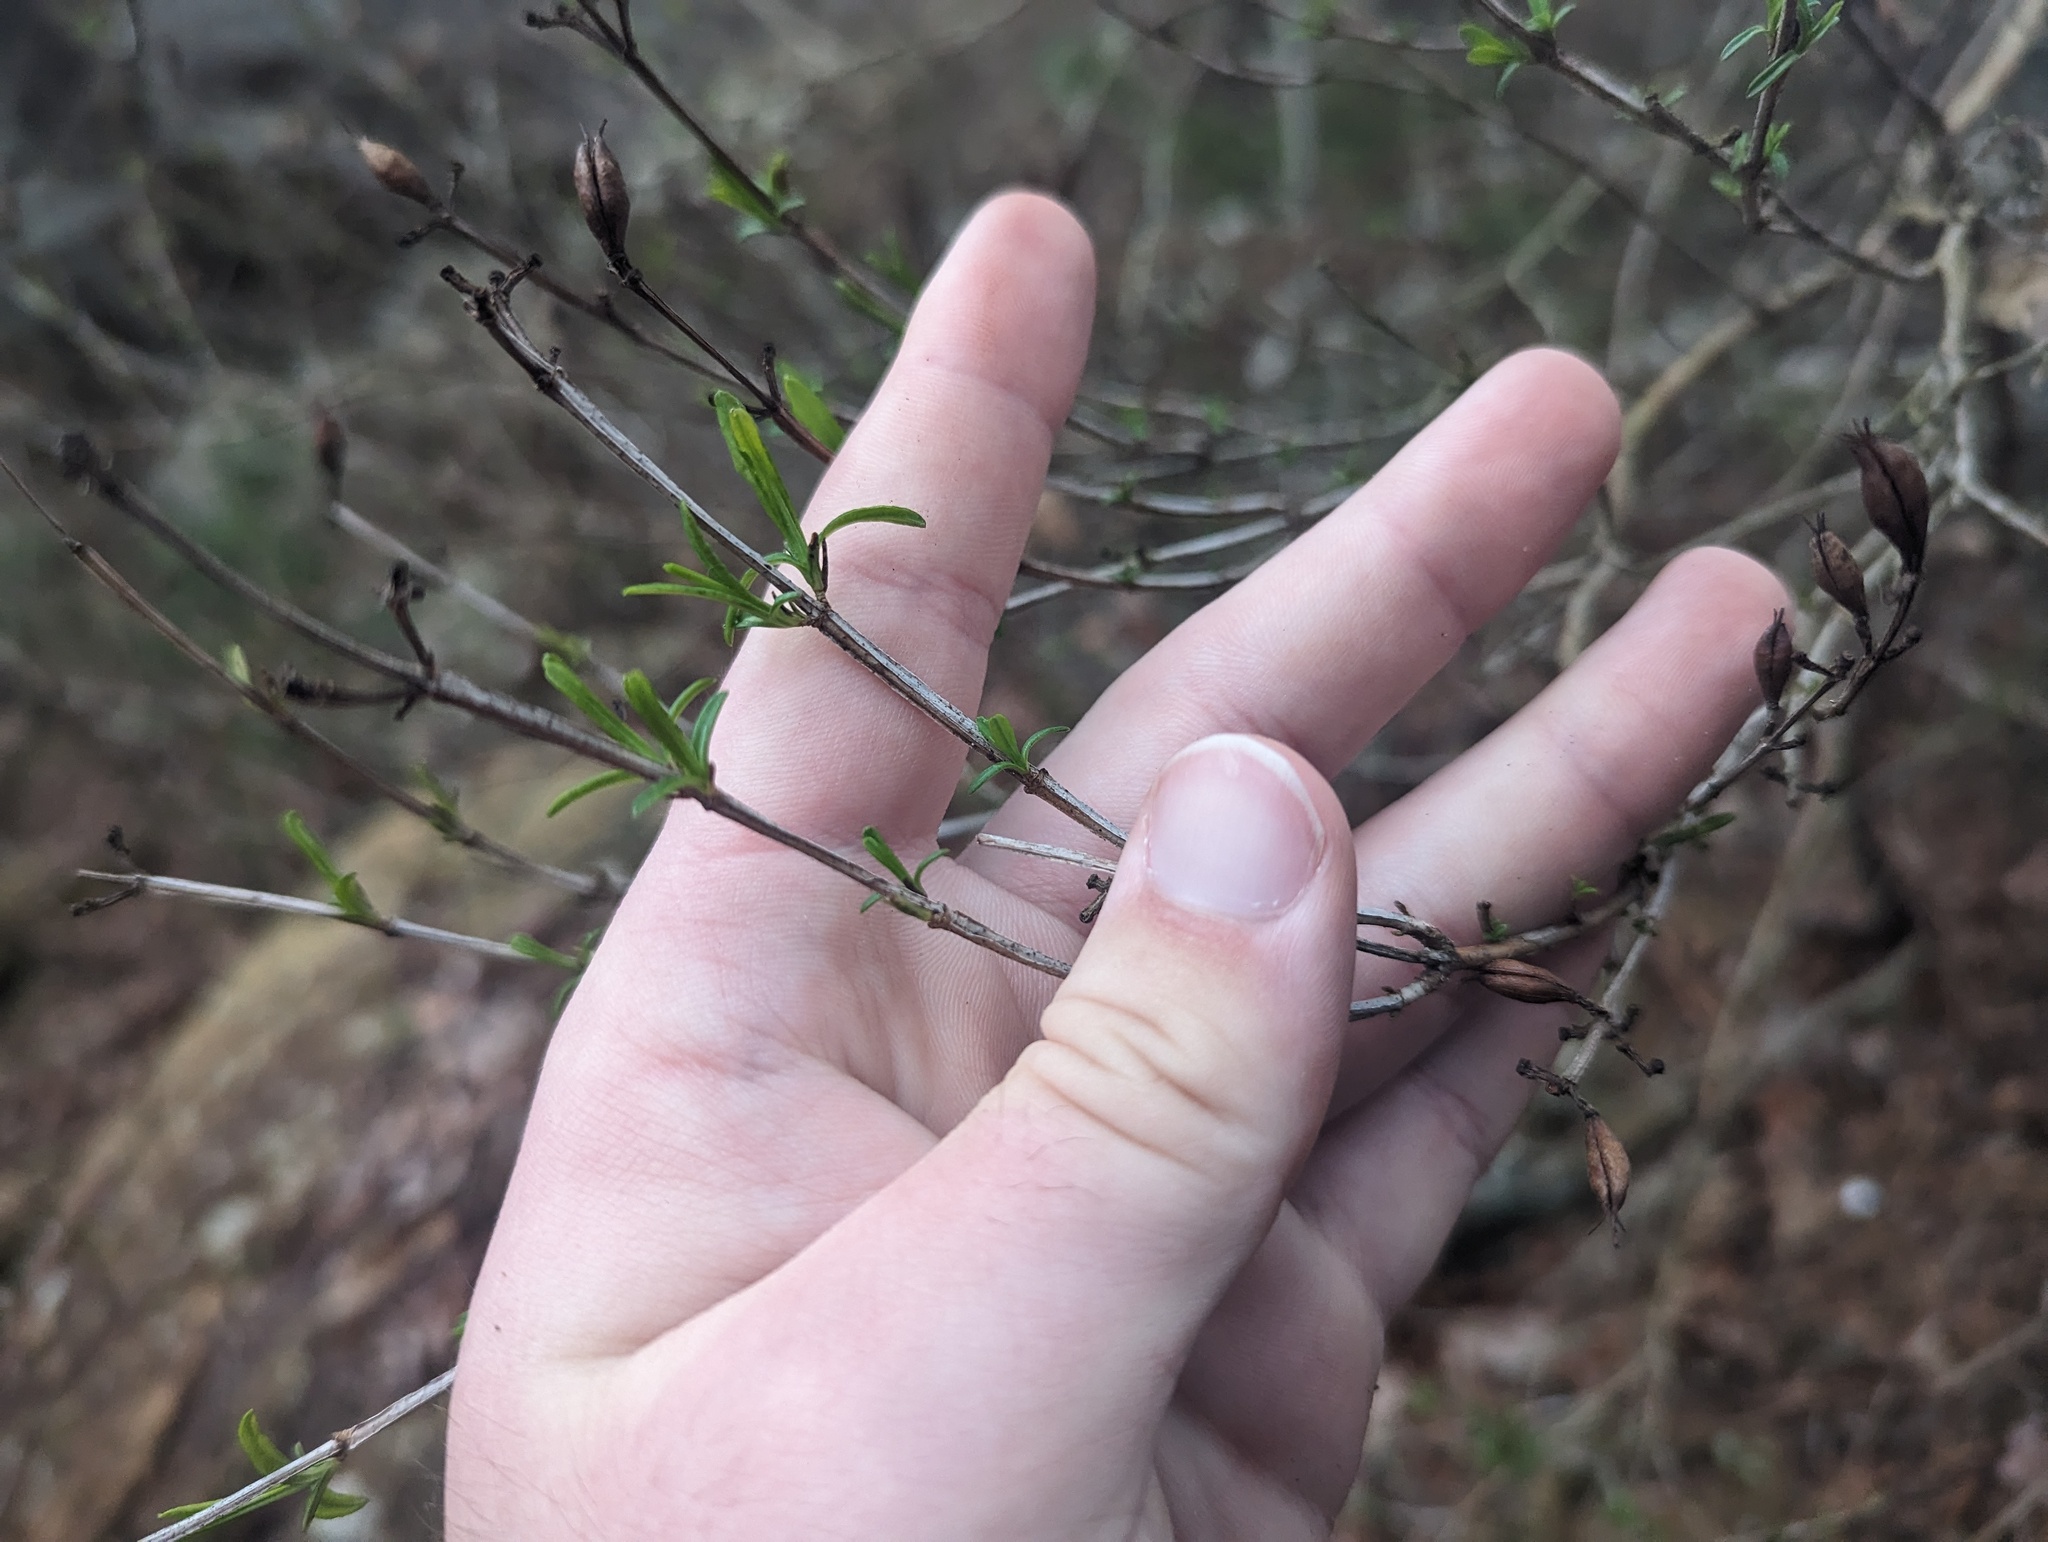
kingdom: Plantae
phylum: Tracheophyta
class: Magnoliopsida
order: Malpighiales
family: Hypericaceae
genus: Hypericum
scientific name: Hypericum prolificum
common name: Shrubby st. john's-wort
